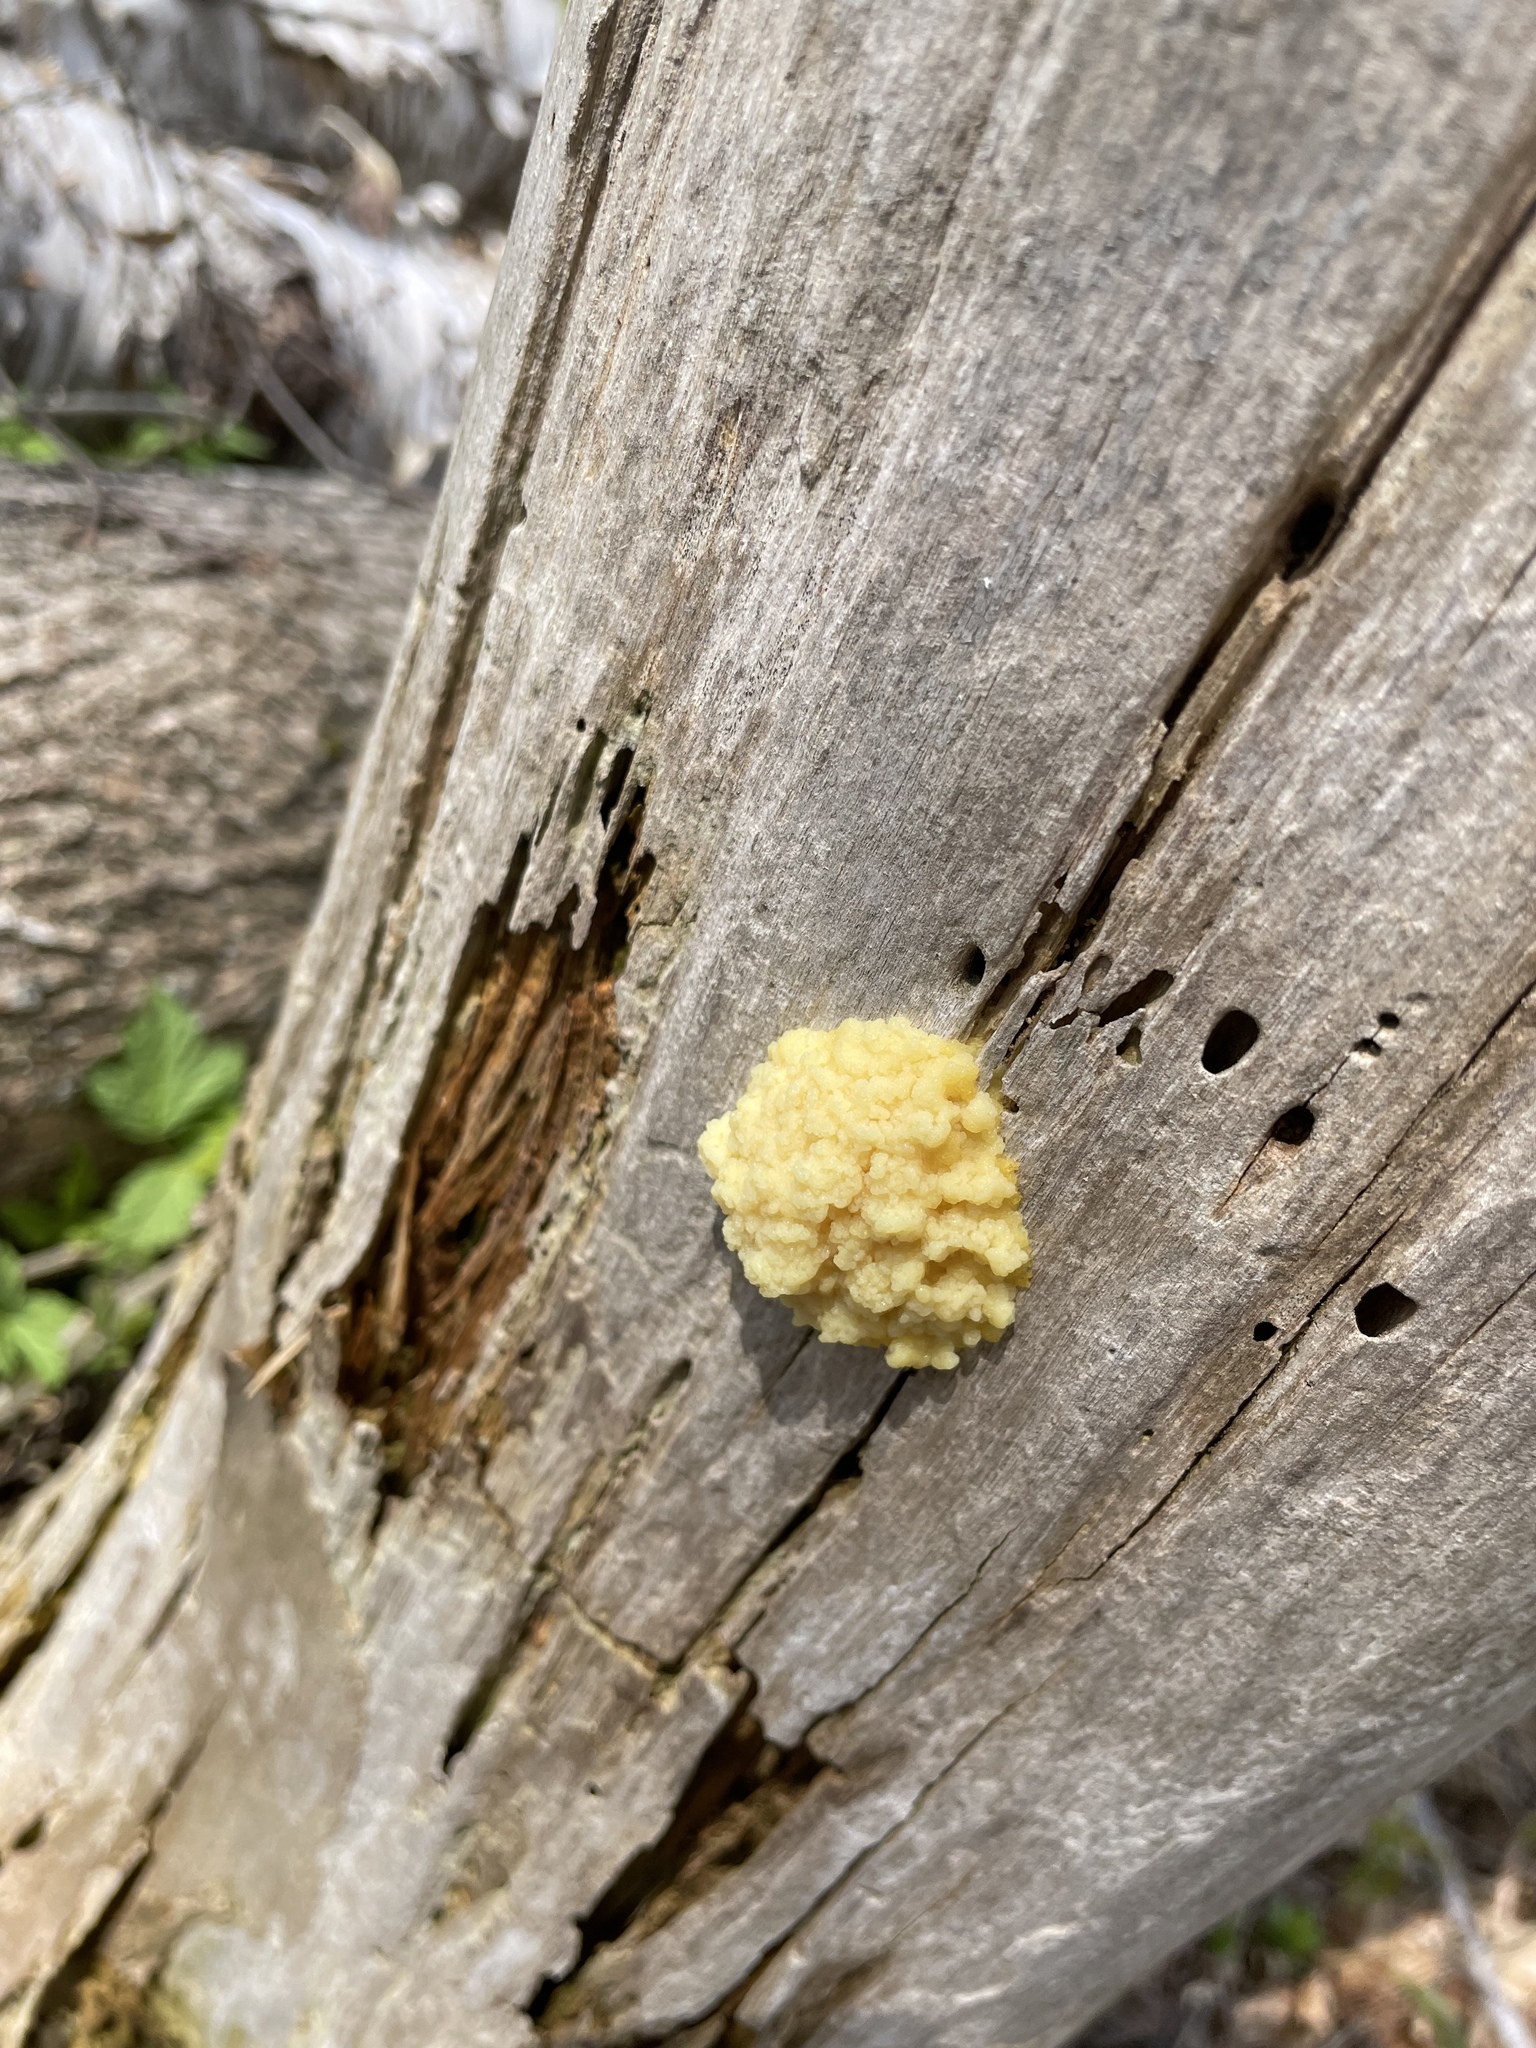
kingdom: Protozoa
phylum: Mycetozoa
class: Myxomycetes
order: Physarales
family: Physaraceae
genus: Fuligo
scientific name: Fuligo septica
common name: Dog vomit slime mold
